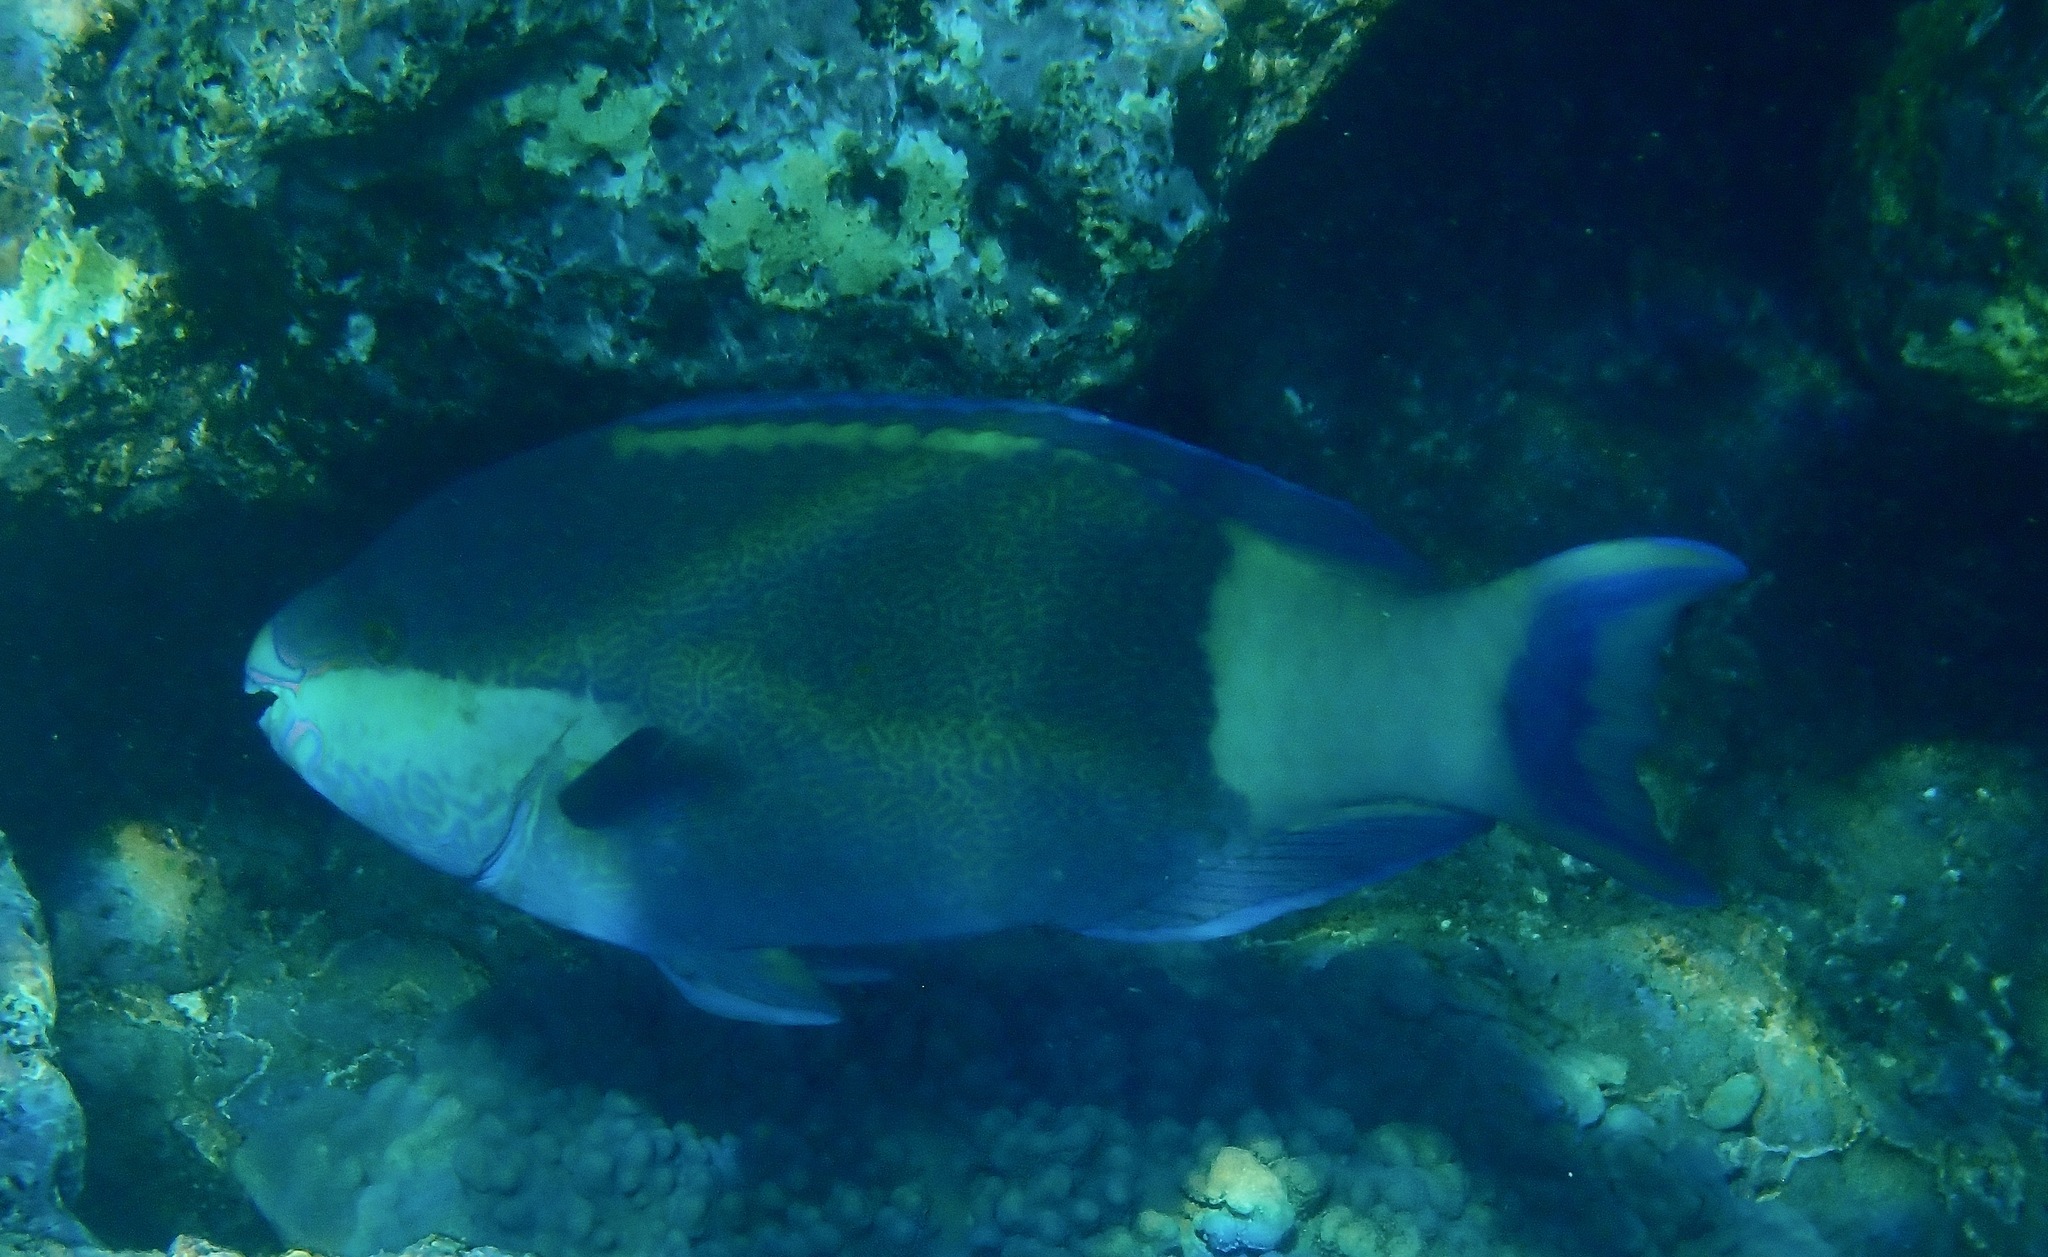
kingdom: Animalia
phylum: Chordata
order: Perciformes
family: Scaridae
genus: Scarus
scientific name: Scarus frenatus
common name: Bridled parrotfish
